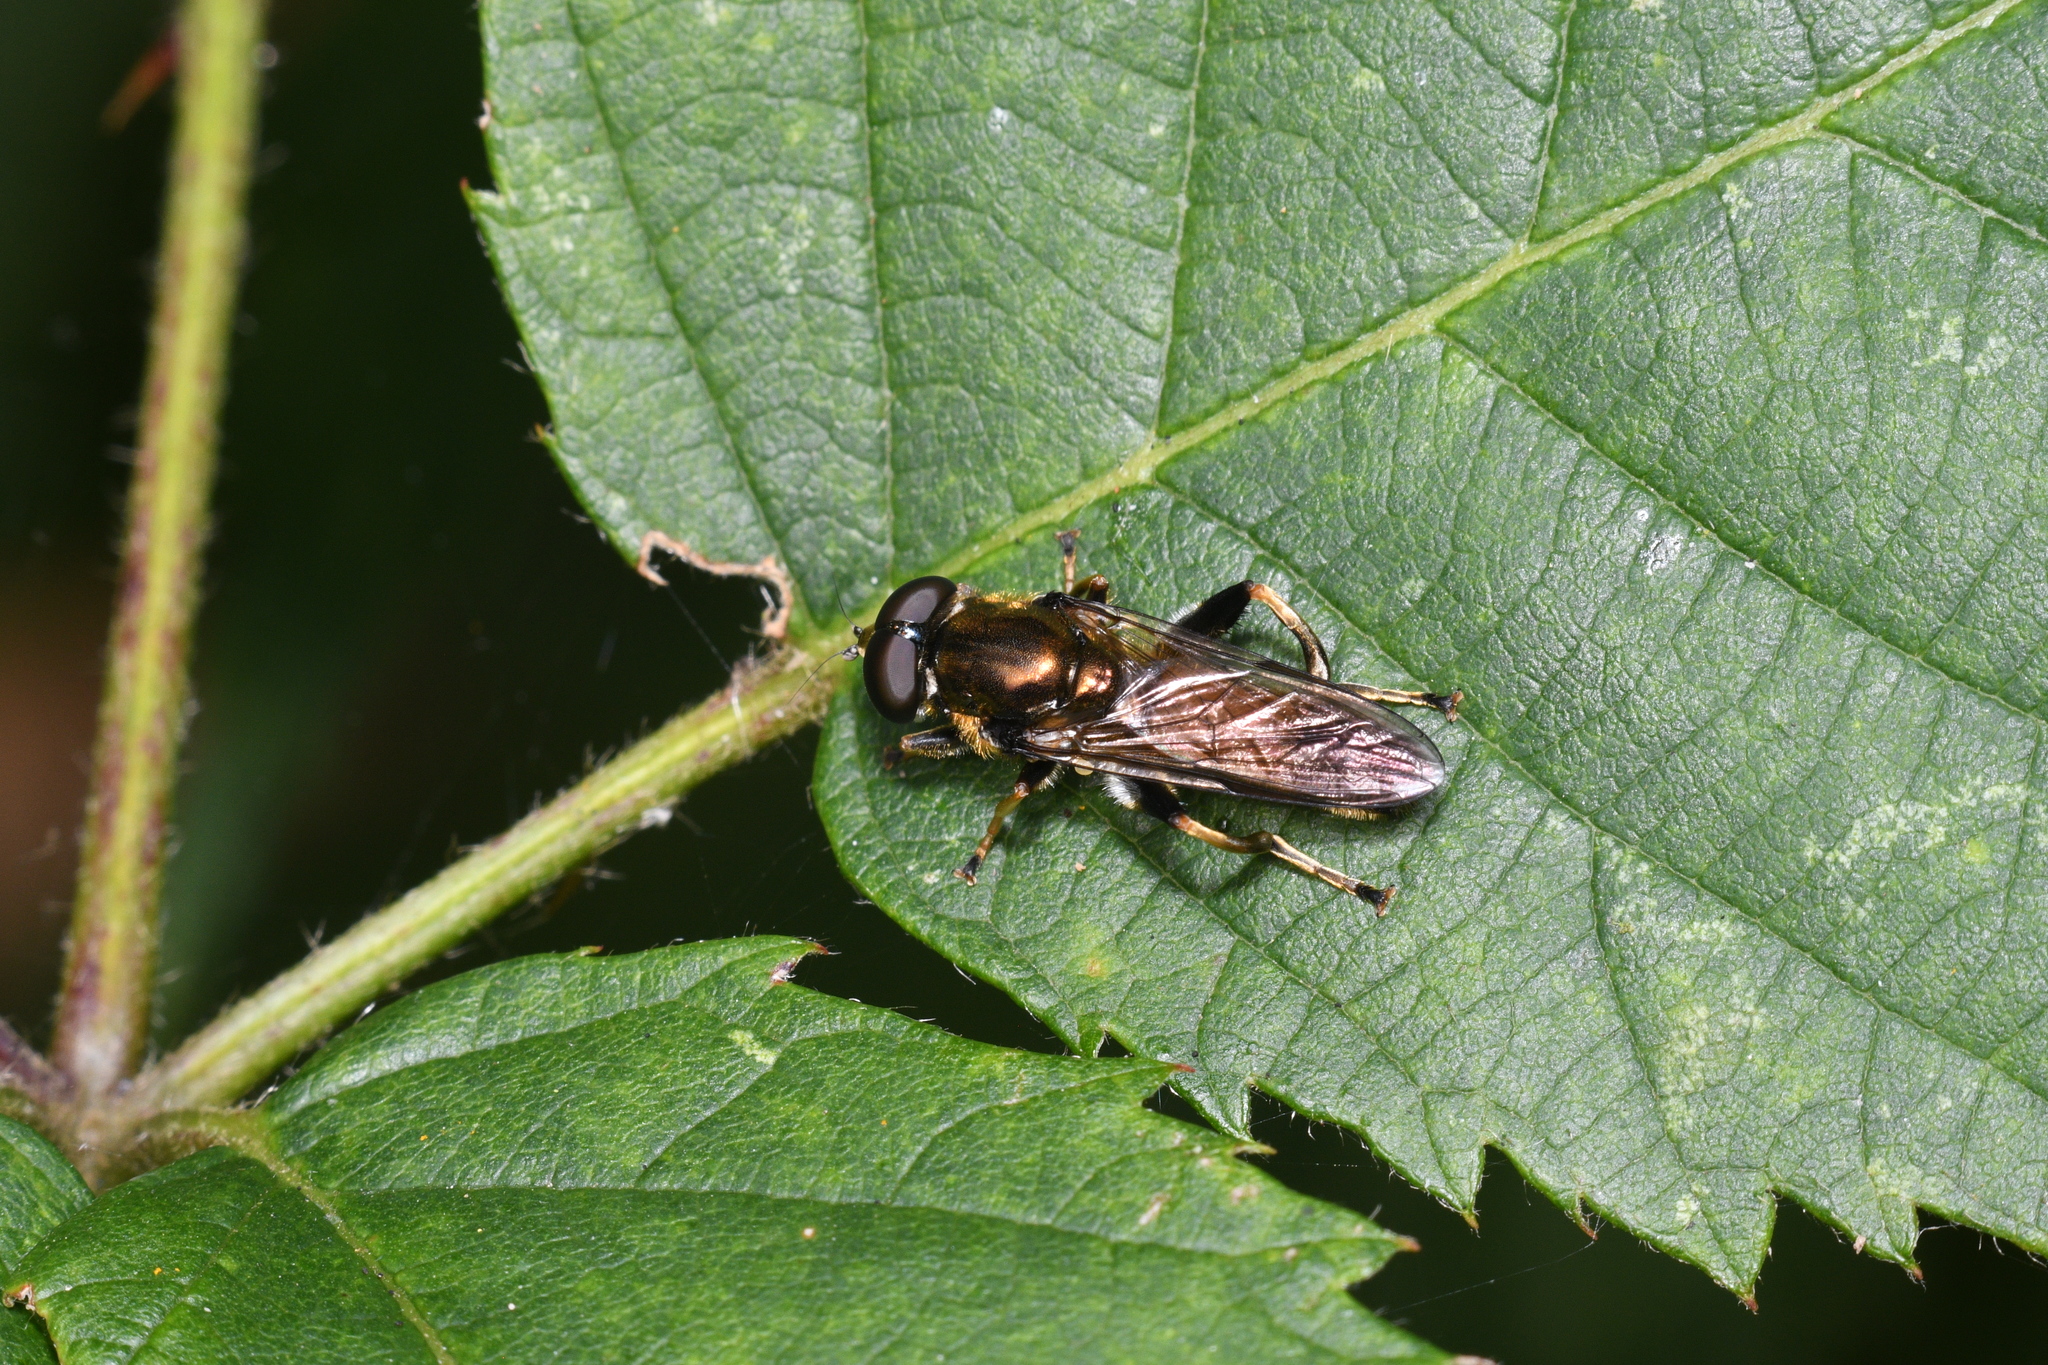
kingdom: Animalia
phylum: Arthropoda
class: Insecta
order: Diptera
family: Syrphidae
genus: Xylota
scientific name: Xylota segnis
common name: Brown-toed forest fly
